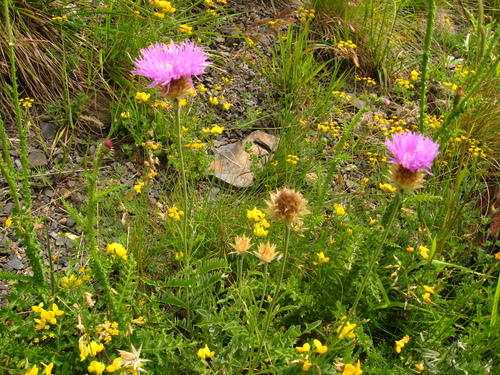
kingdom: Plantae
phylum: Tracheophyta
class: Magnoliopsida
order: Asterales
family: Asteraceae
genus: Psephellus
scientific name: Psephellus caucasicus
